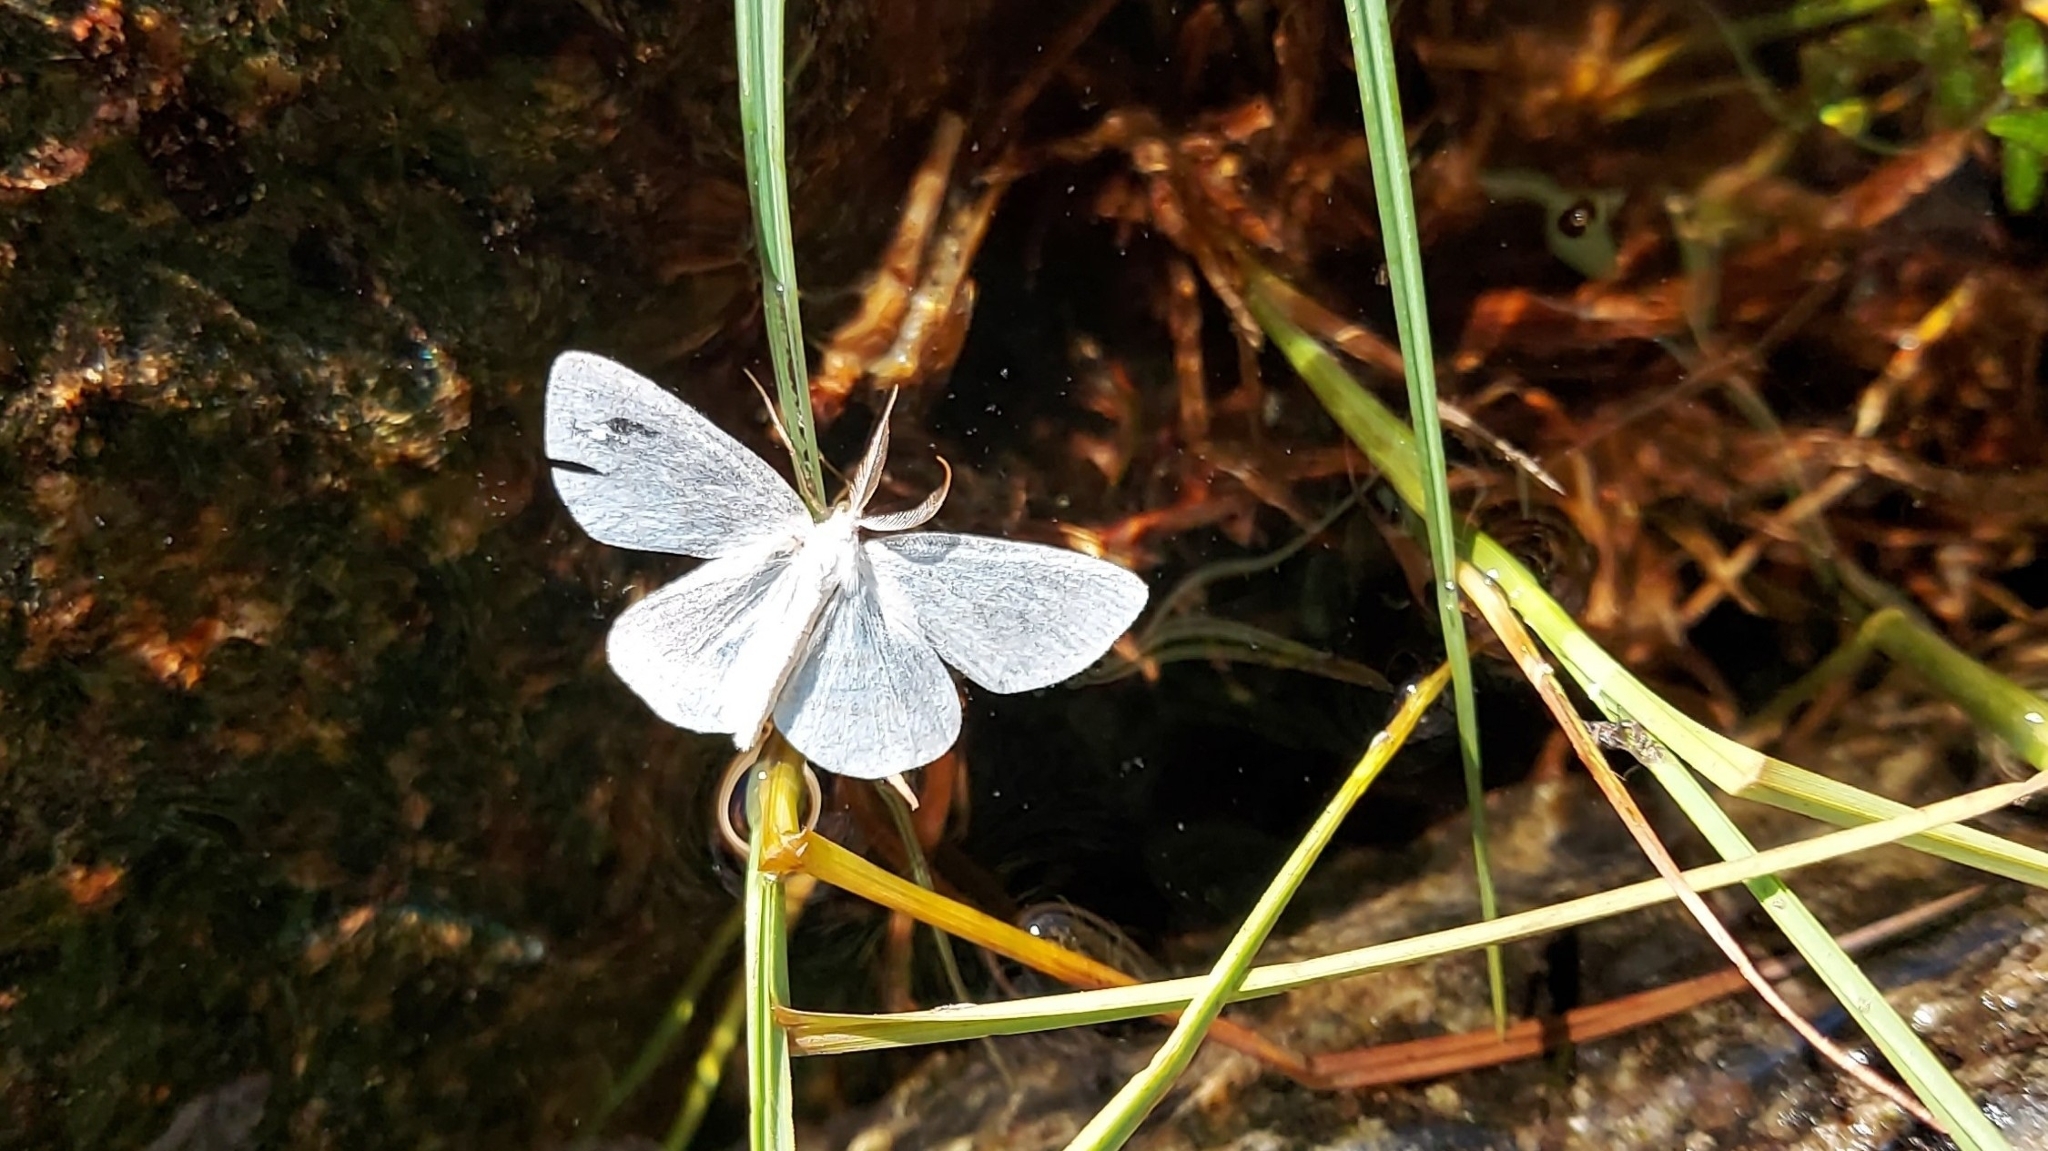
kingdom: Animalia
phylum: Arthropoda
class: Insecta
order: Lepidoptera
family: Geometridae
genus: Cabera
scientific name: Cabera pusaria
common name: Common white wave
